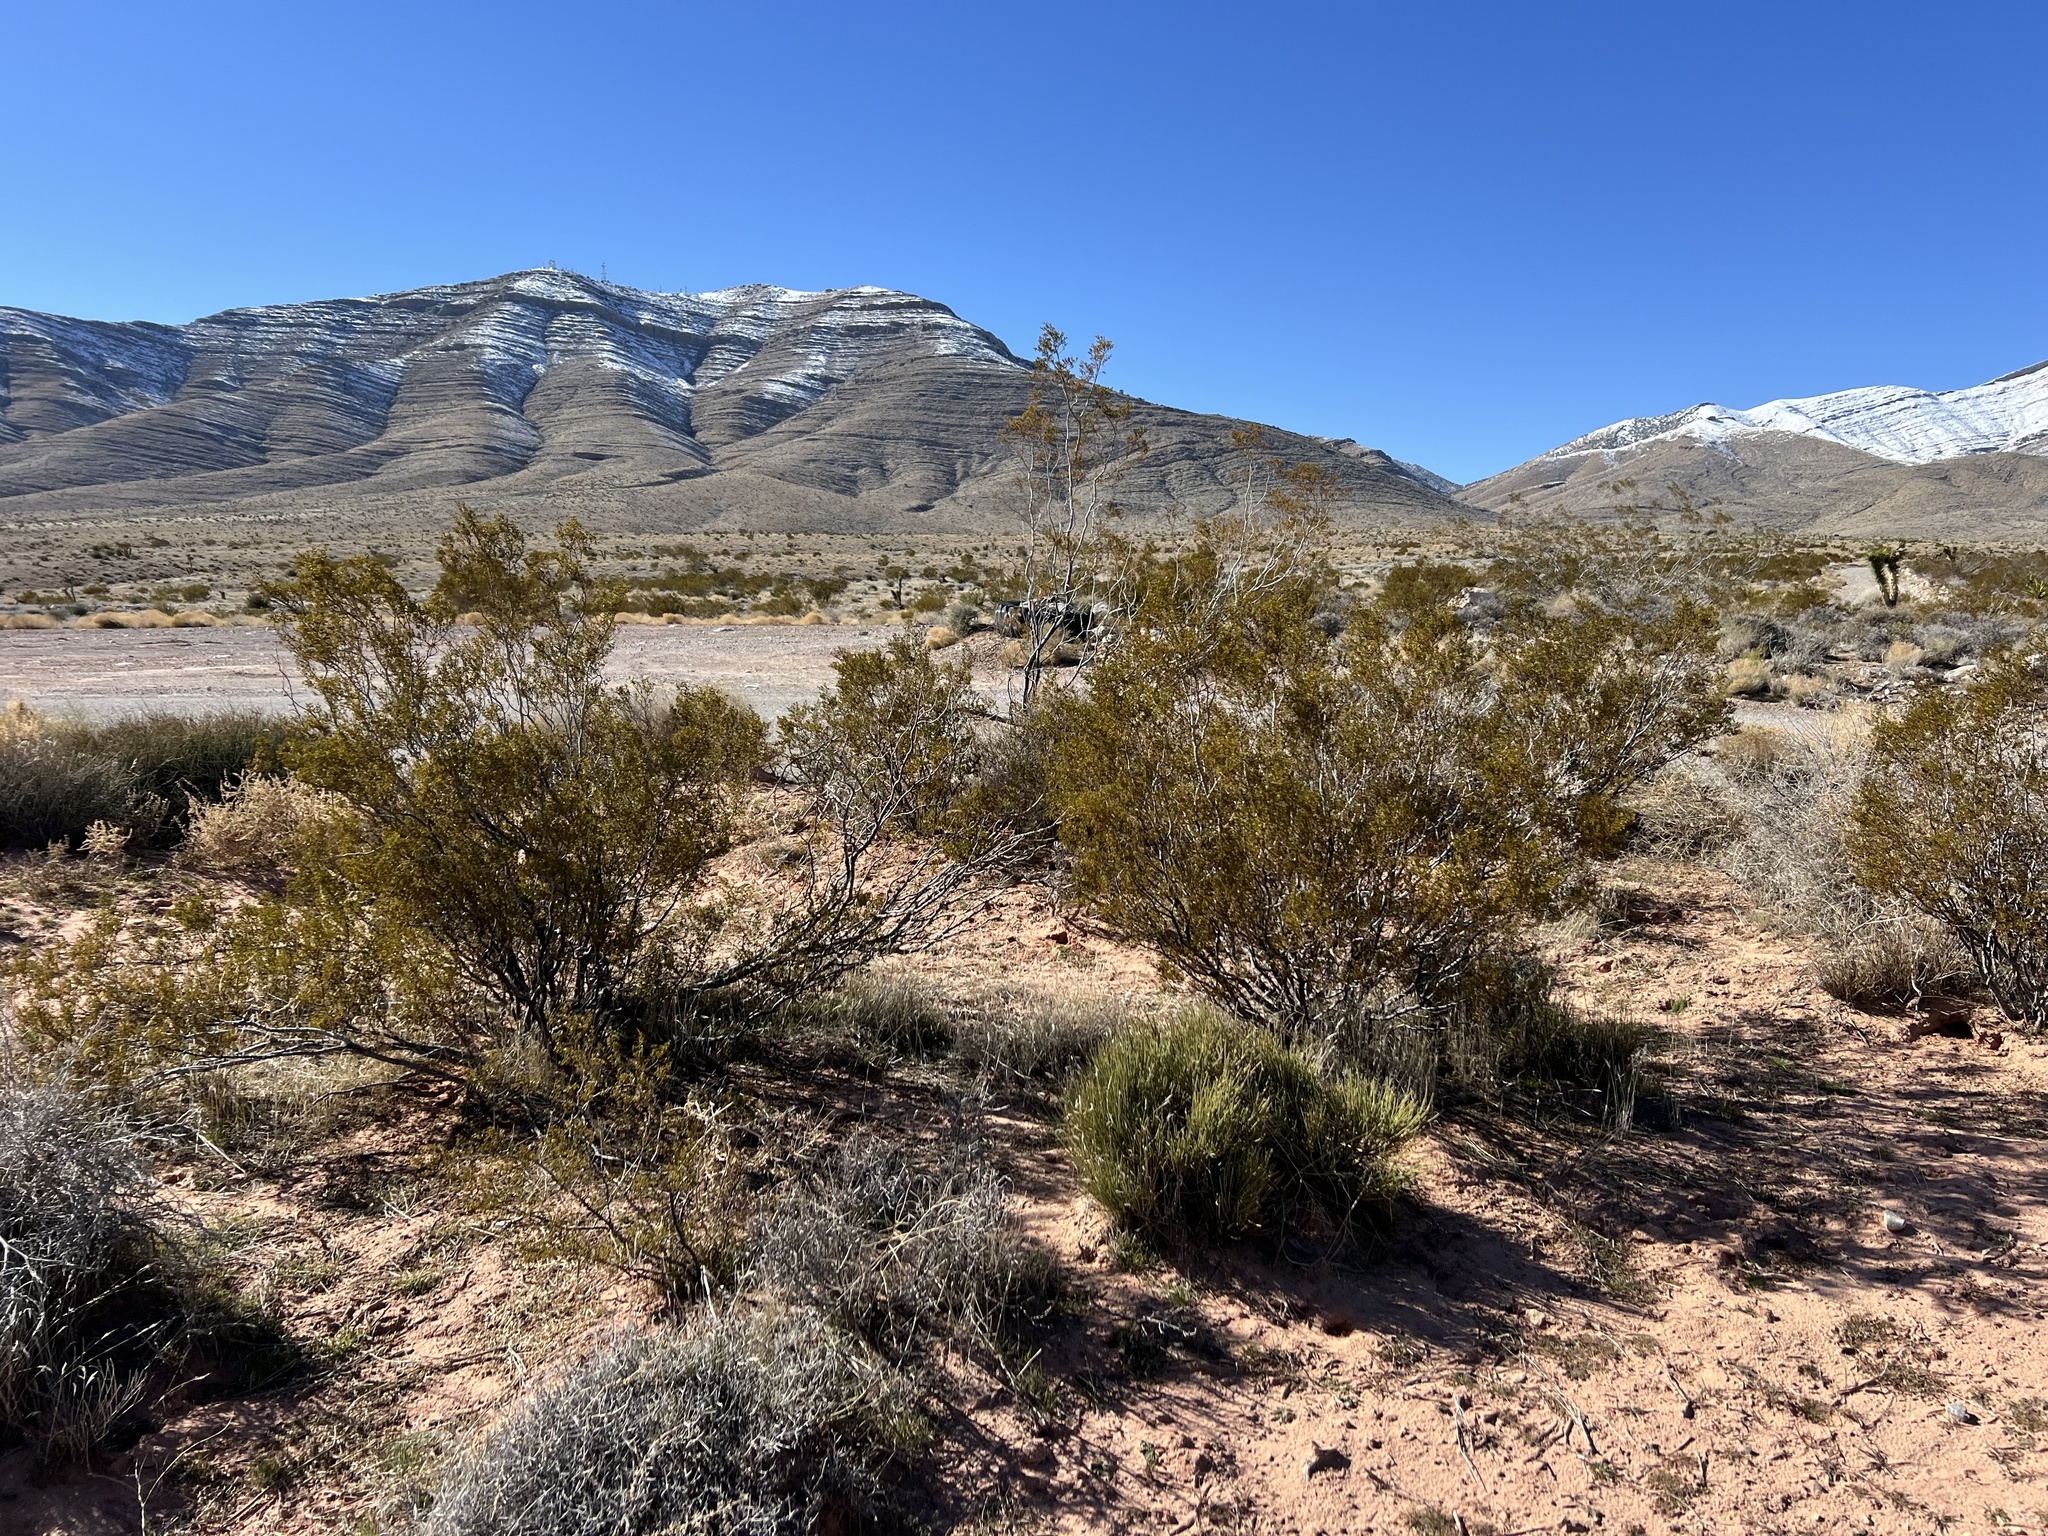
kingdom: Plantae
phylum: Tracheophyta
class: Magnoliopsida
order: Zygophyllales
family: Zygophyllaceae
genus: Larrea
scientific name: Larrea tridentata
